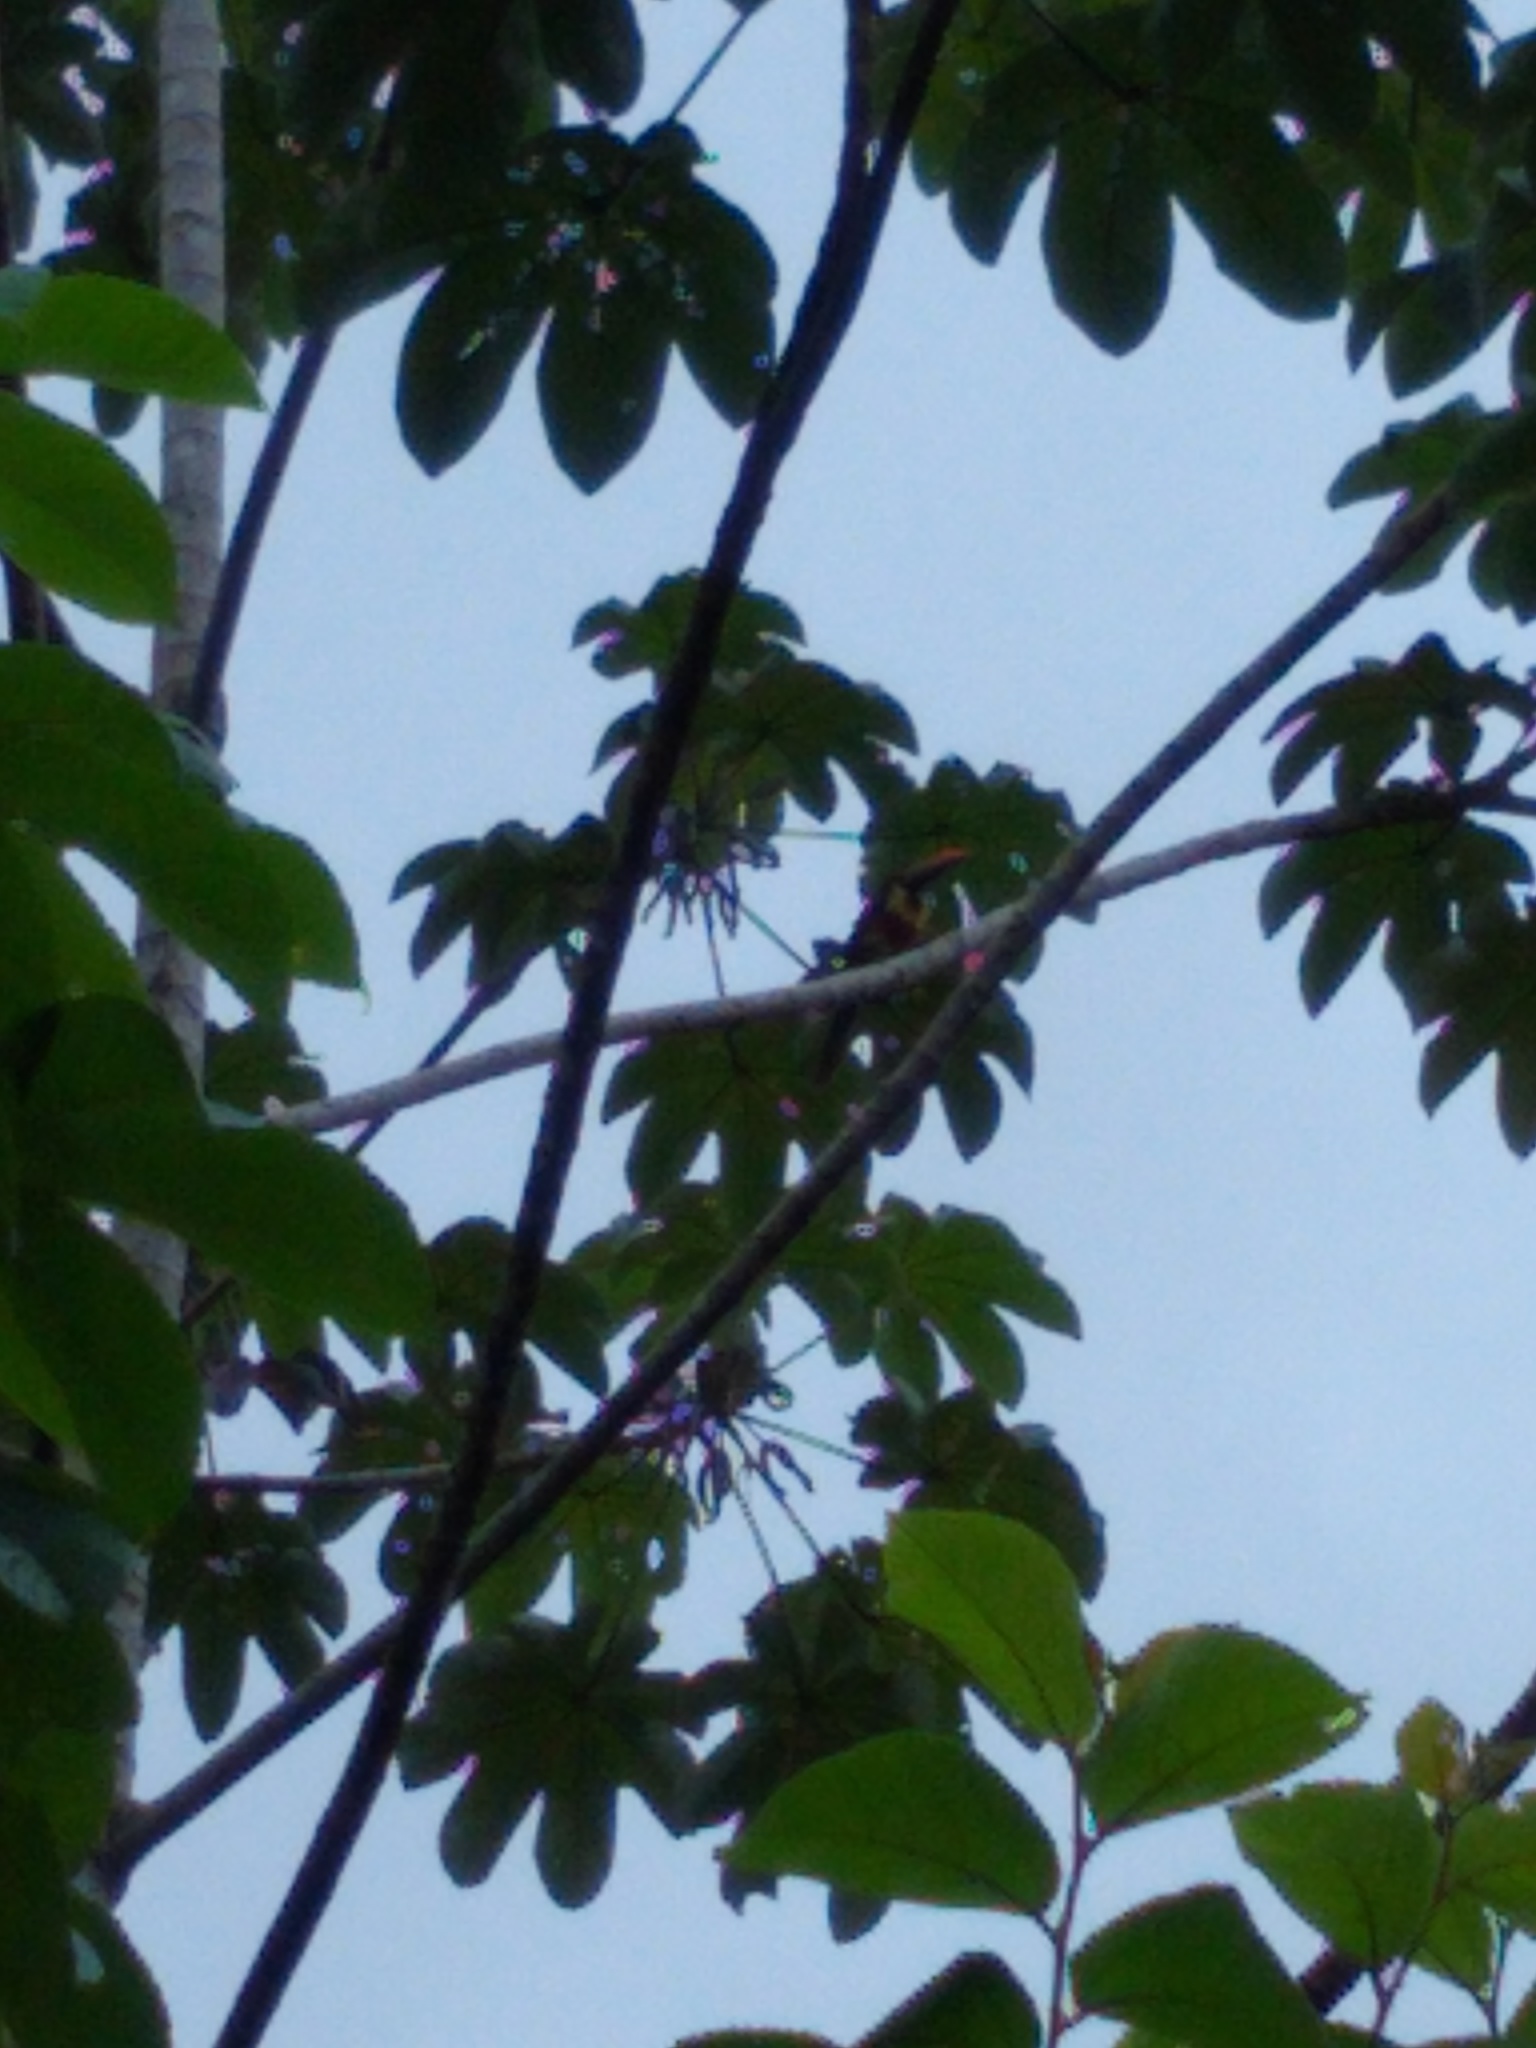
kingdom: Animalia
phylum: Chordata
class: Aves
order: Piciformes
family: Ramphastidae
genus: Pteroglossus
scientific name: Pteroglossus frantzii
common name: Fiery-billed aracari
